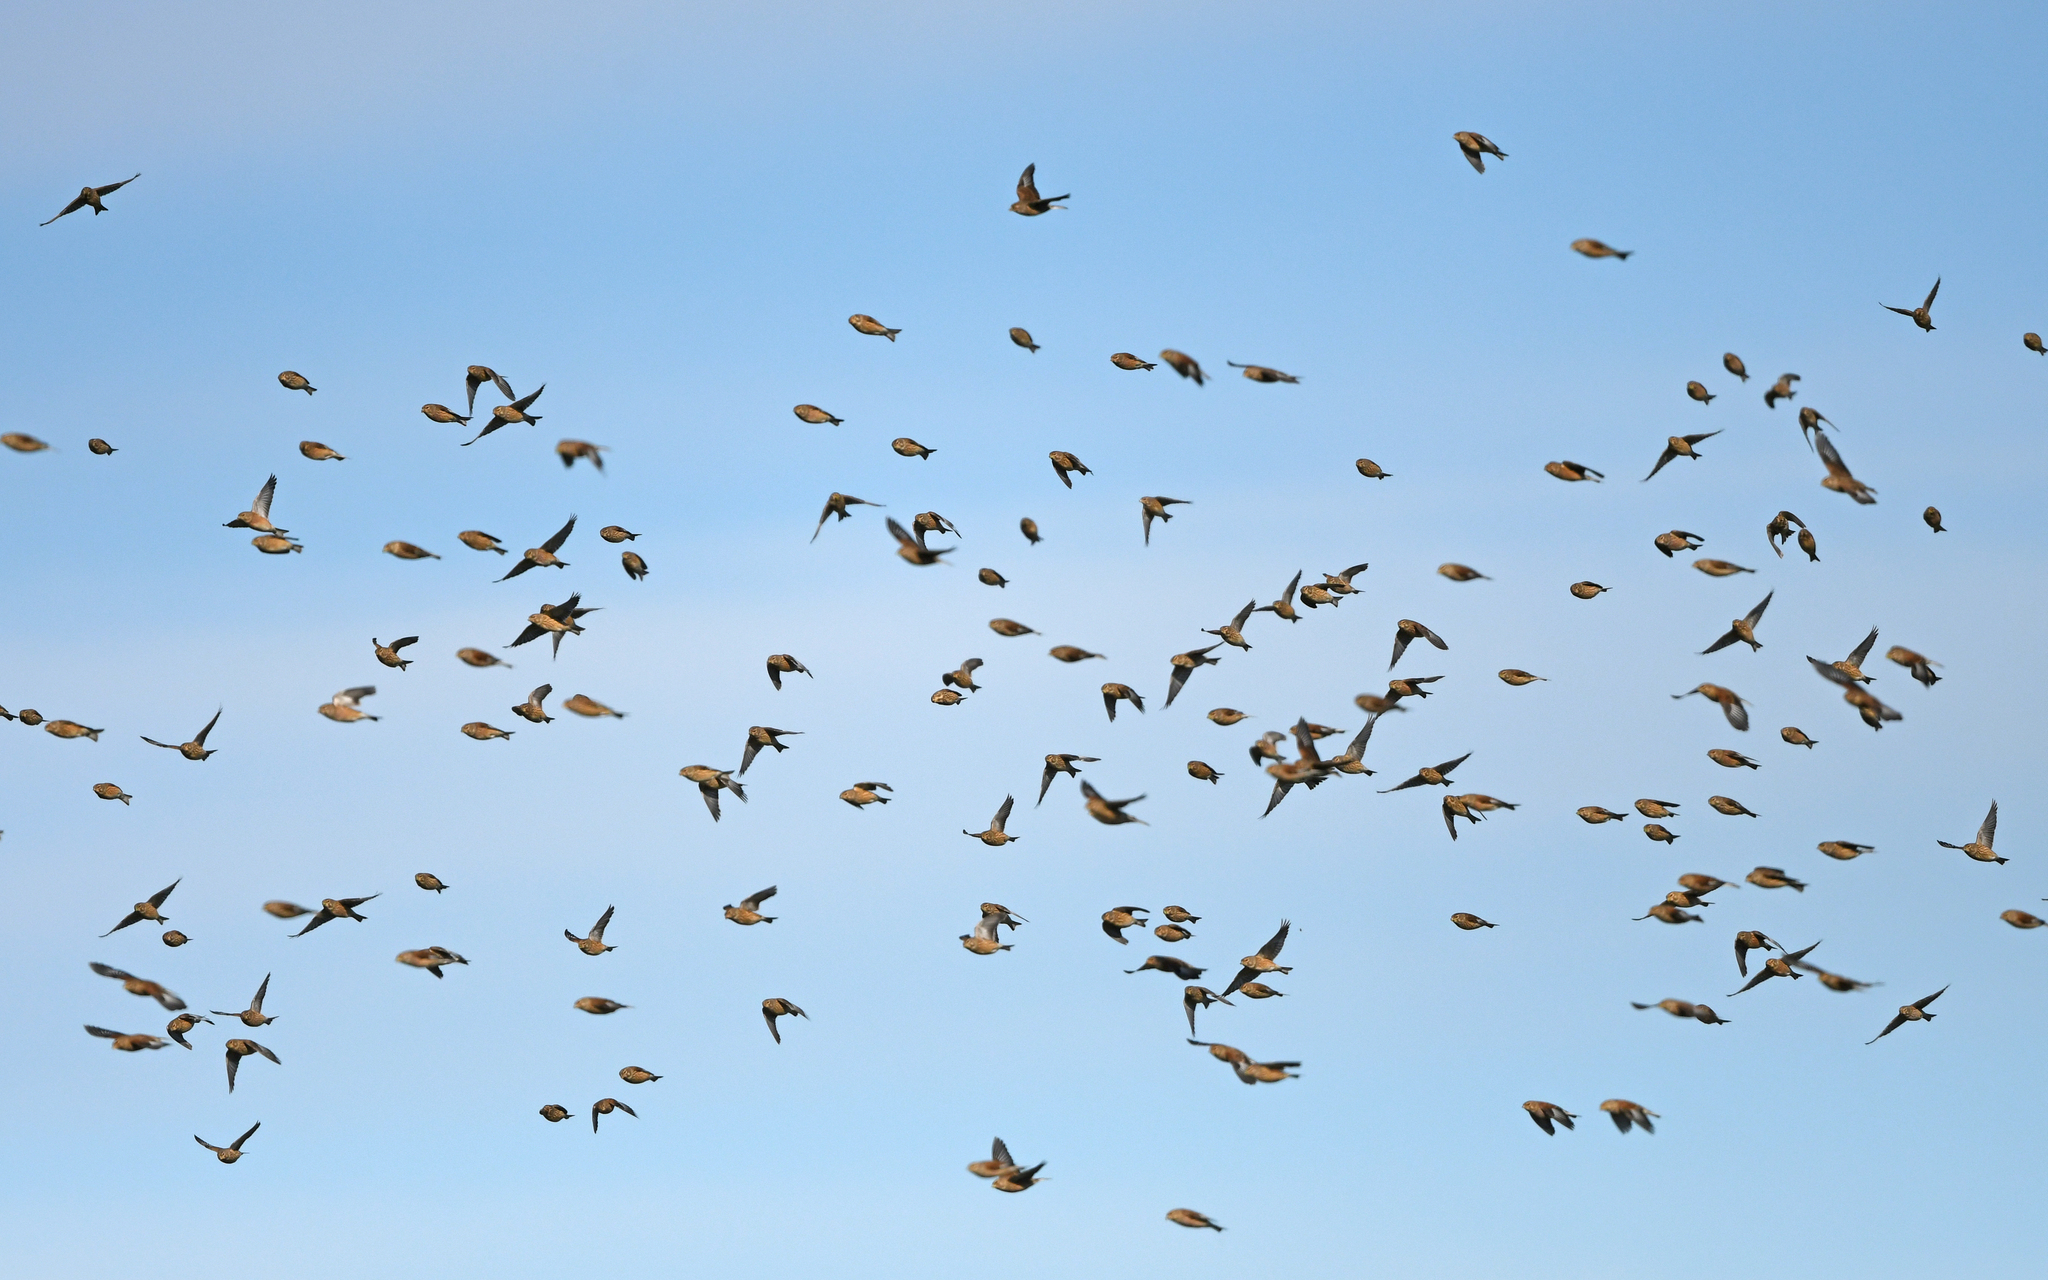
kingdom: Animalia
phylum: Chordata
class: Aves
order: Passeriformes
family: Fringillidae
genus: Linaria
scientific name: Linaria cannabina
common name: Common linnet
